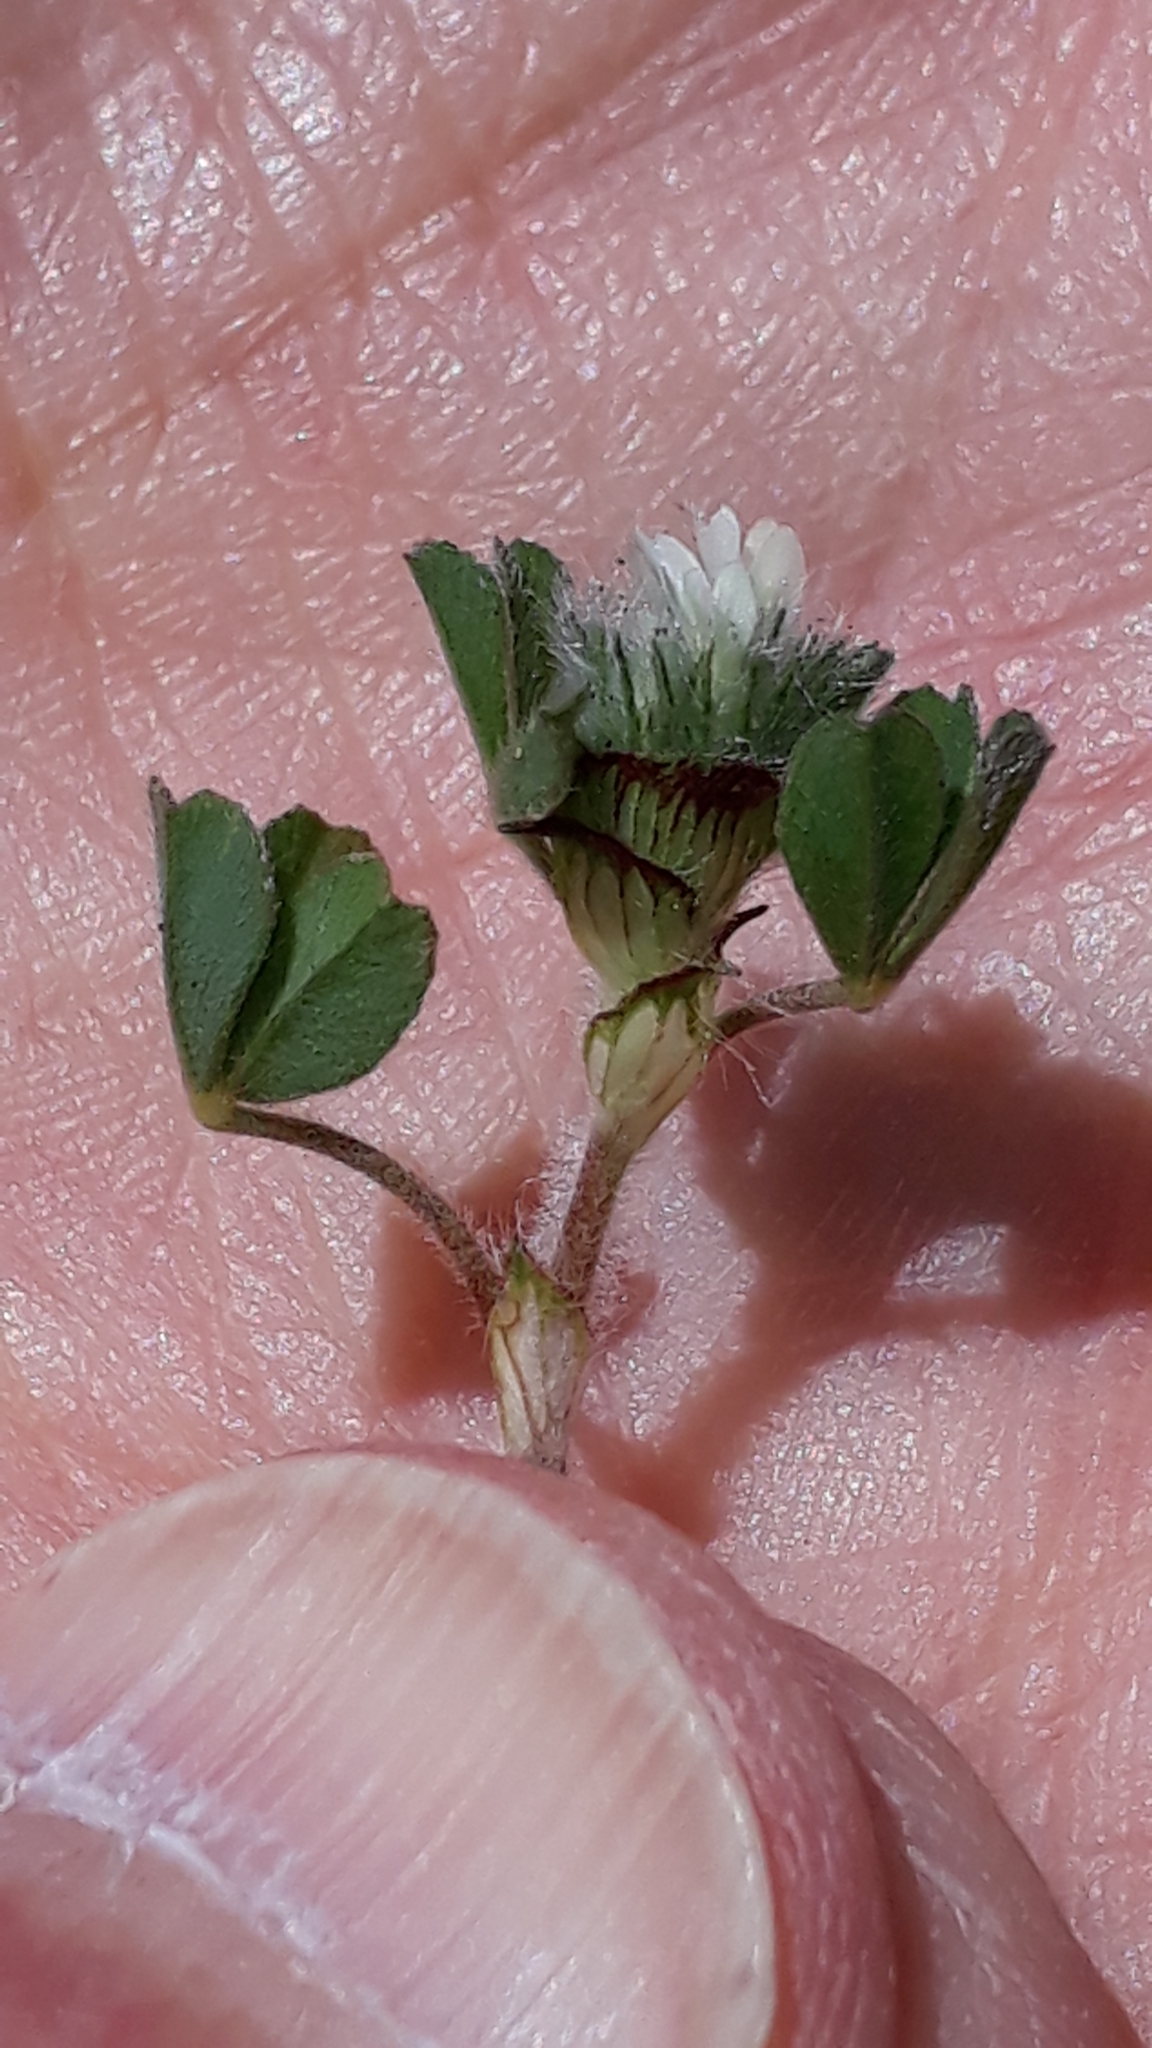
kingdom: Plantae
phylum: Tracheophyta
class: Magnoliopsida
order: Fabales
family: Fabaceae
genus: Trifolium
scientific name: Trifolium cherleri
